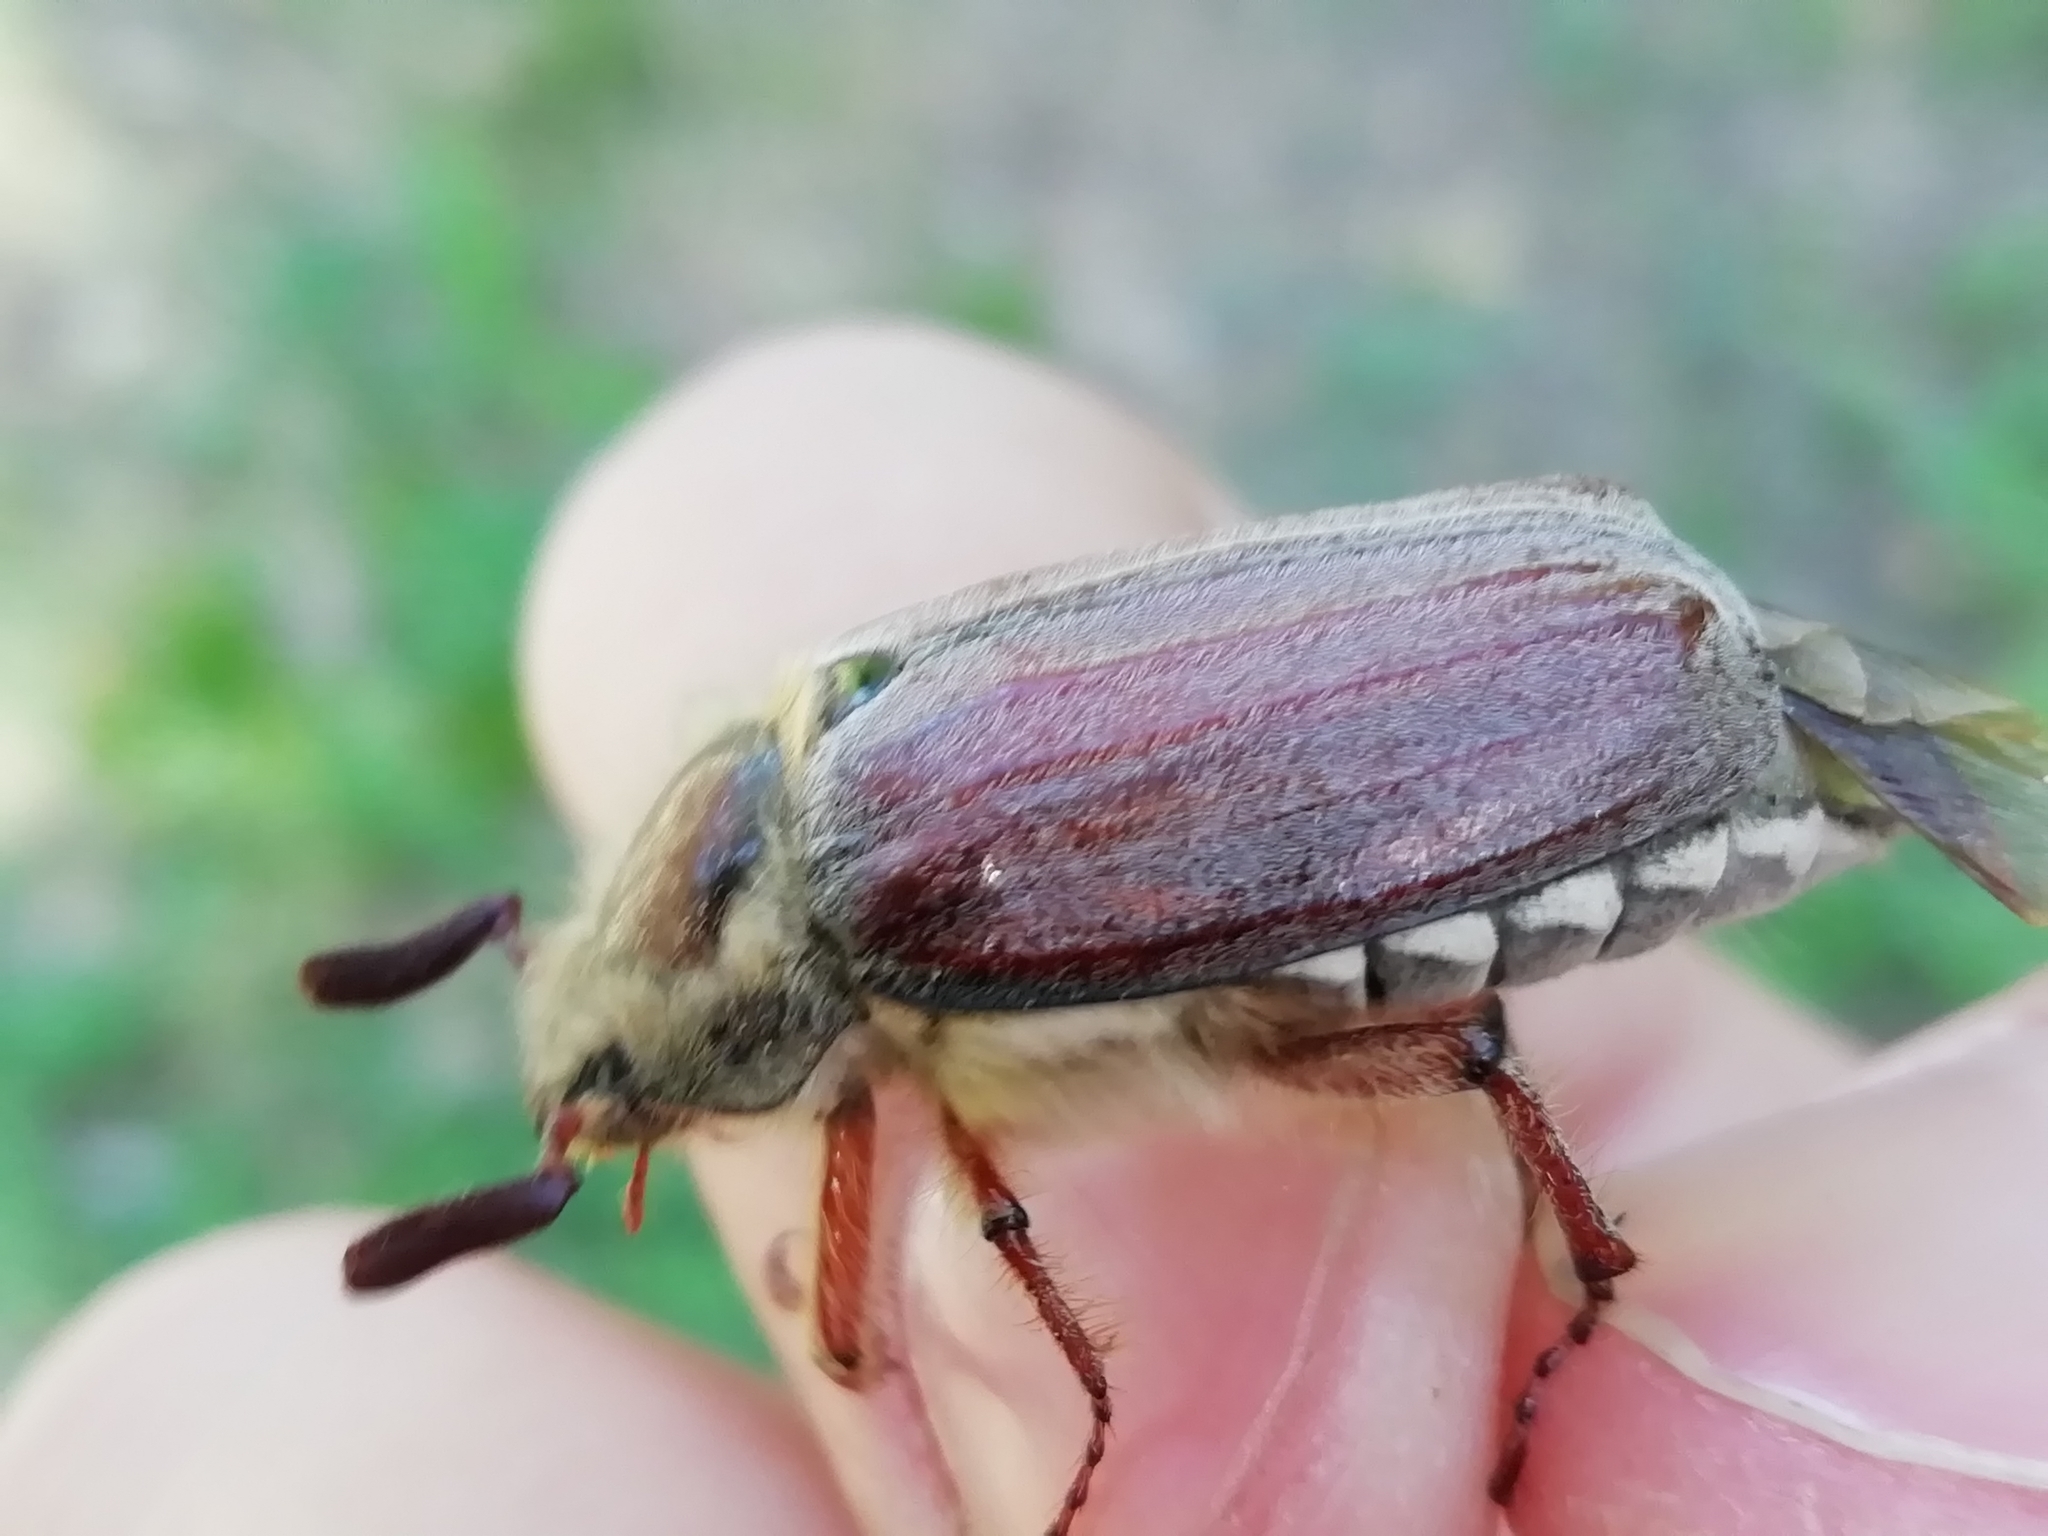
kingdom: Animalia
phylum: Arthropoda
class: Insecta
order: Coleoptera
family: Scarabaeidae
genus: Melolontha
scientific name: Melolontha hippocastani
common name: Chestnut cockchafer
